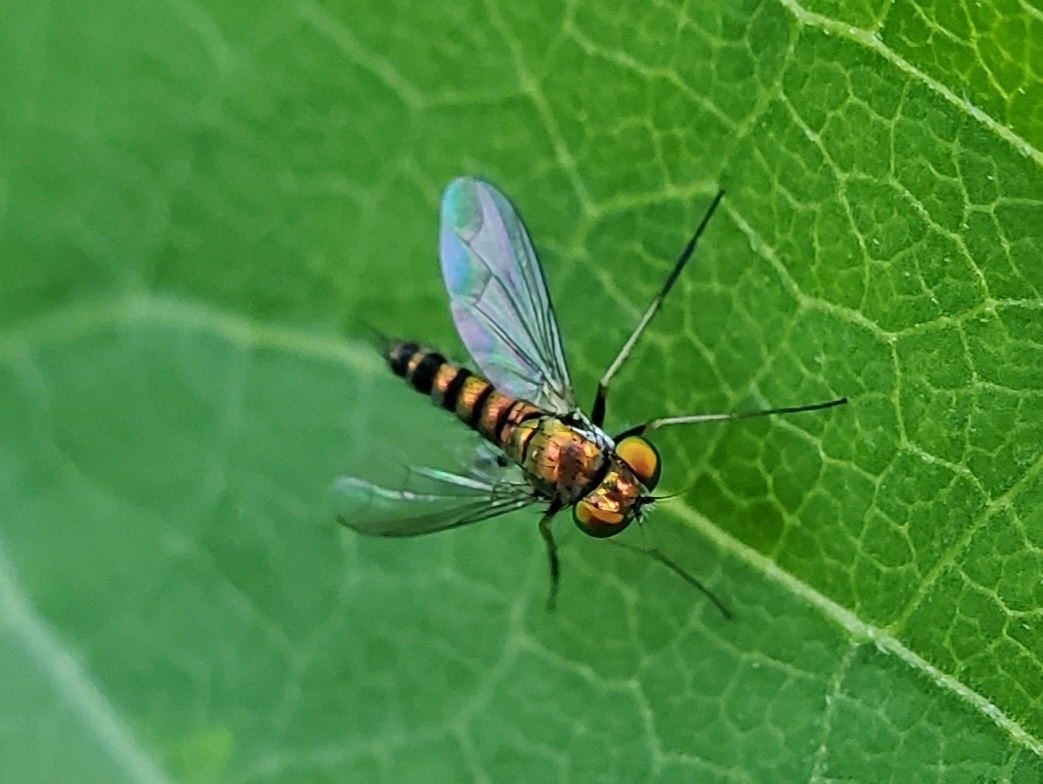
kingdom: Animalia
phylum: Arthropoda
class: Insecta
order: Diptera
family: Dolichopodidae
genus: Condylostylus
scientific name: Condylostylus caudatus
